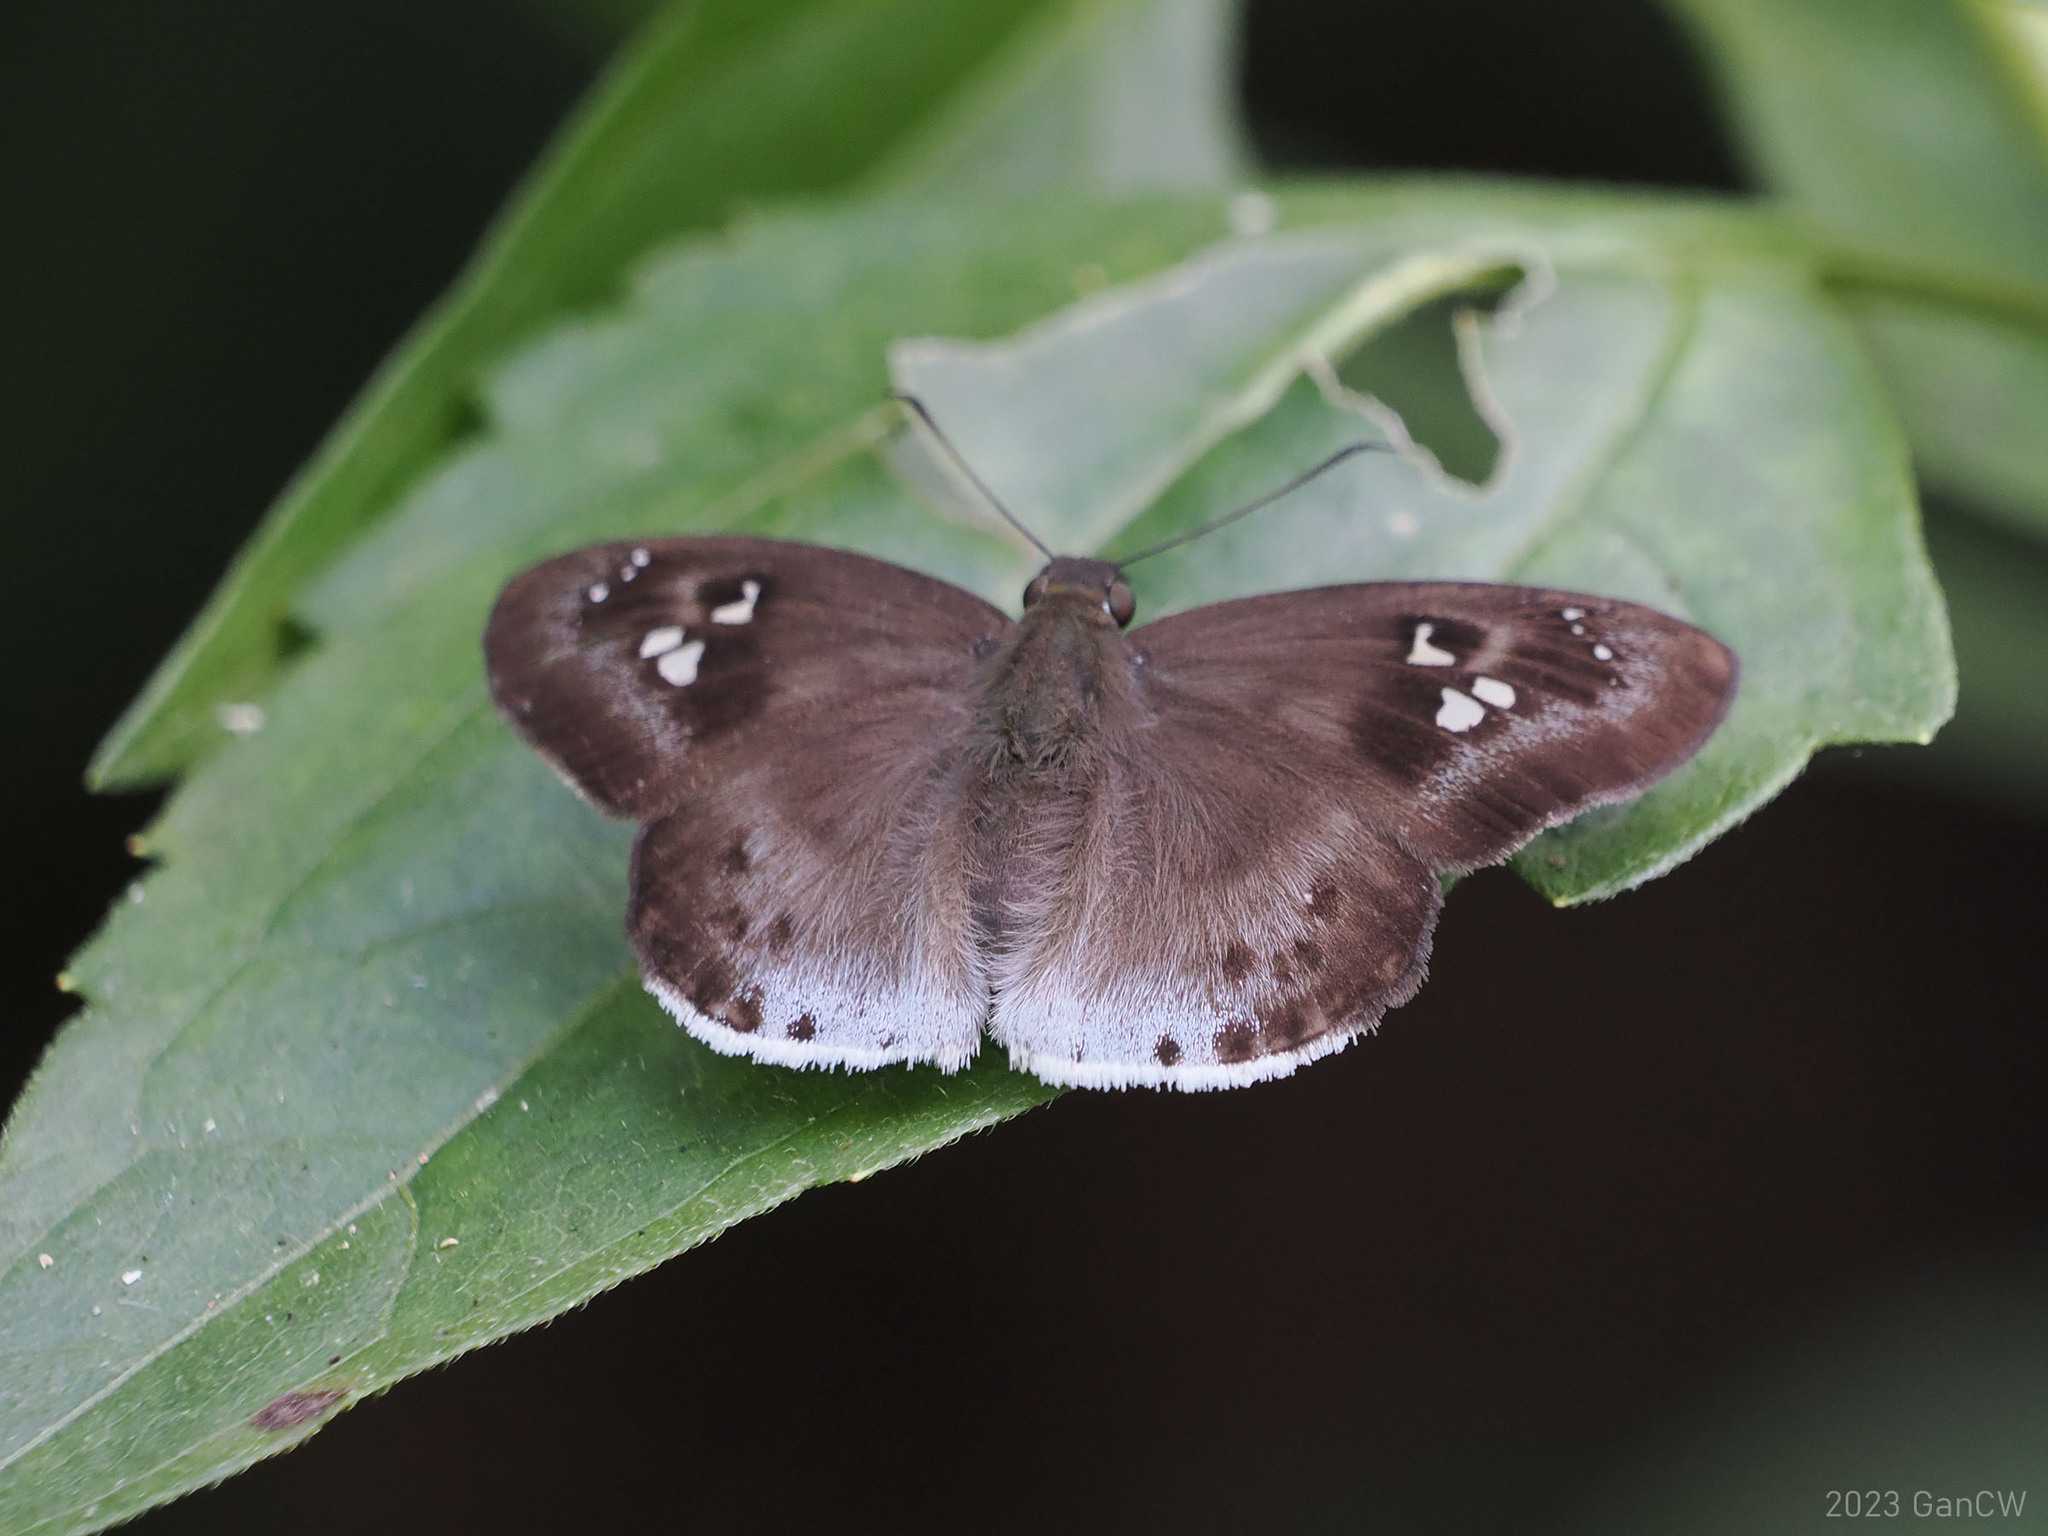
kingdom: Animalia
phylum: Arthropoda
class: Insecta
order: Lepidoptera
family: Hesperiidae
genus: Tagiades
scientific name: Tagiades japetus
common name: Pied flat
